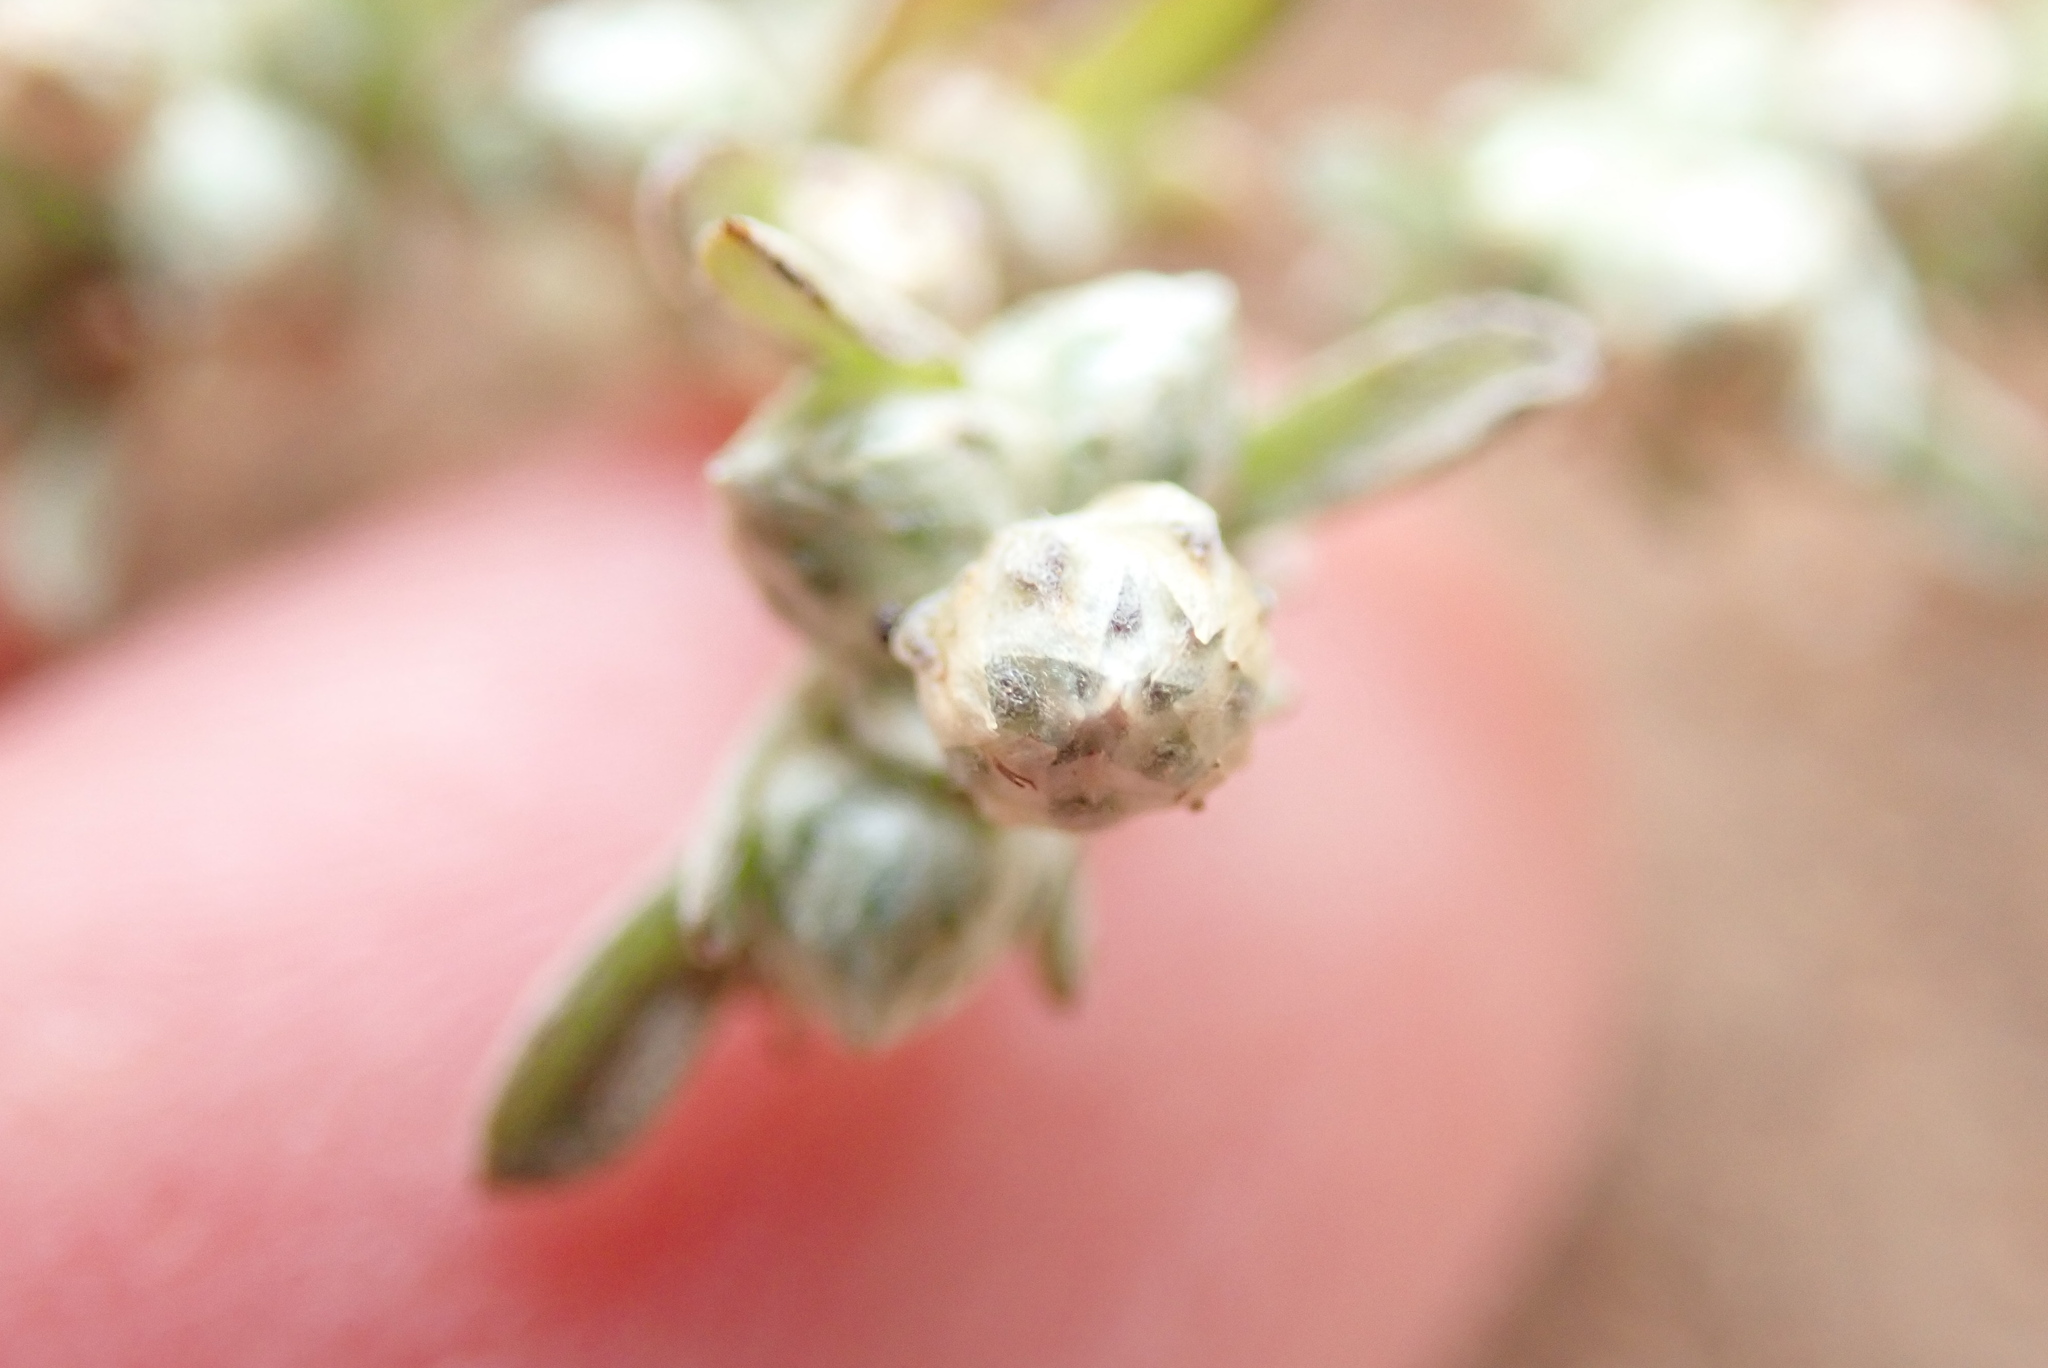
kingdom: Plantae
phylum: Tracheophyta
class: Magnoliopsida
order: Asterales
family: Asteraceae
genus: Stylocline
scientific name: Stylocline gnaphaloides
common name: Everlasting nest-straw
